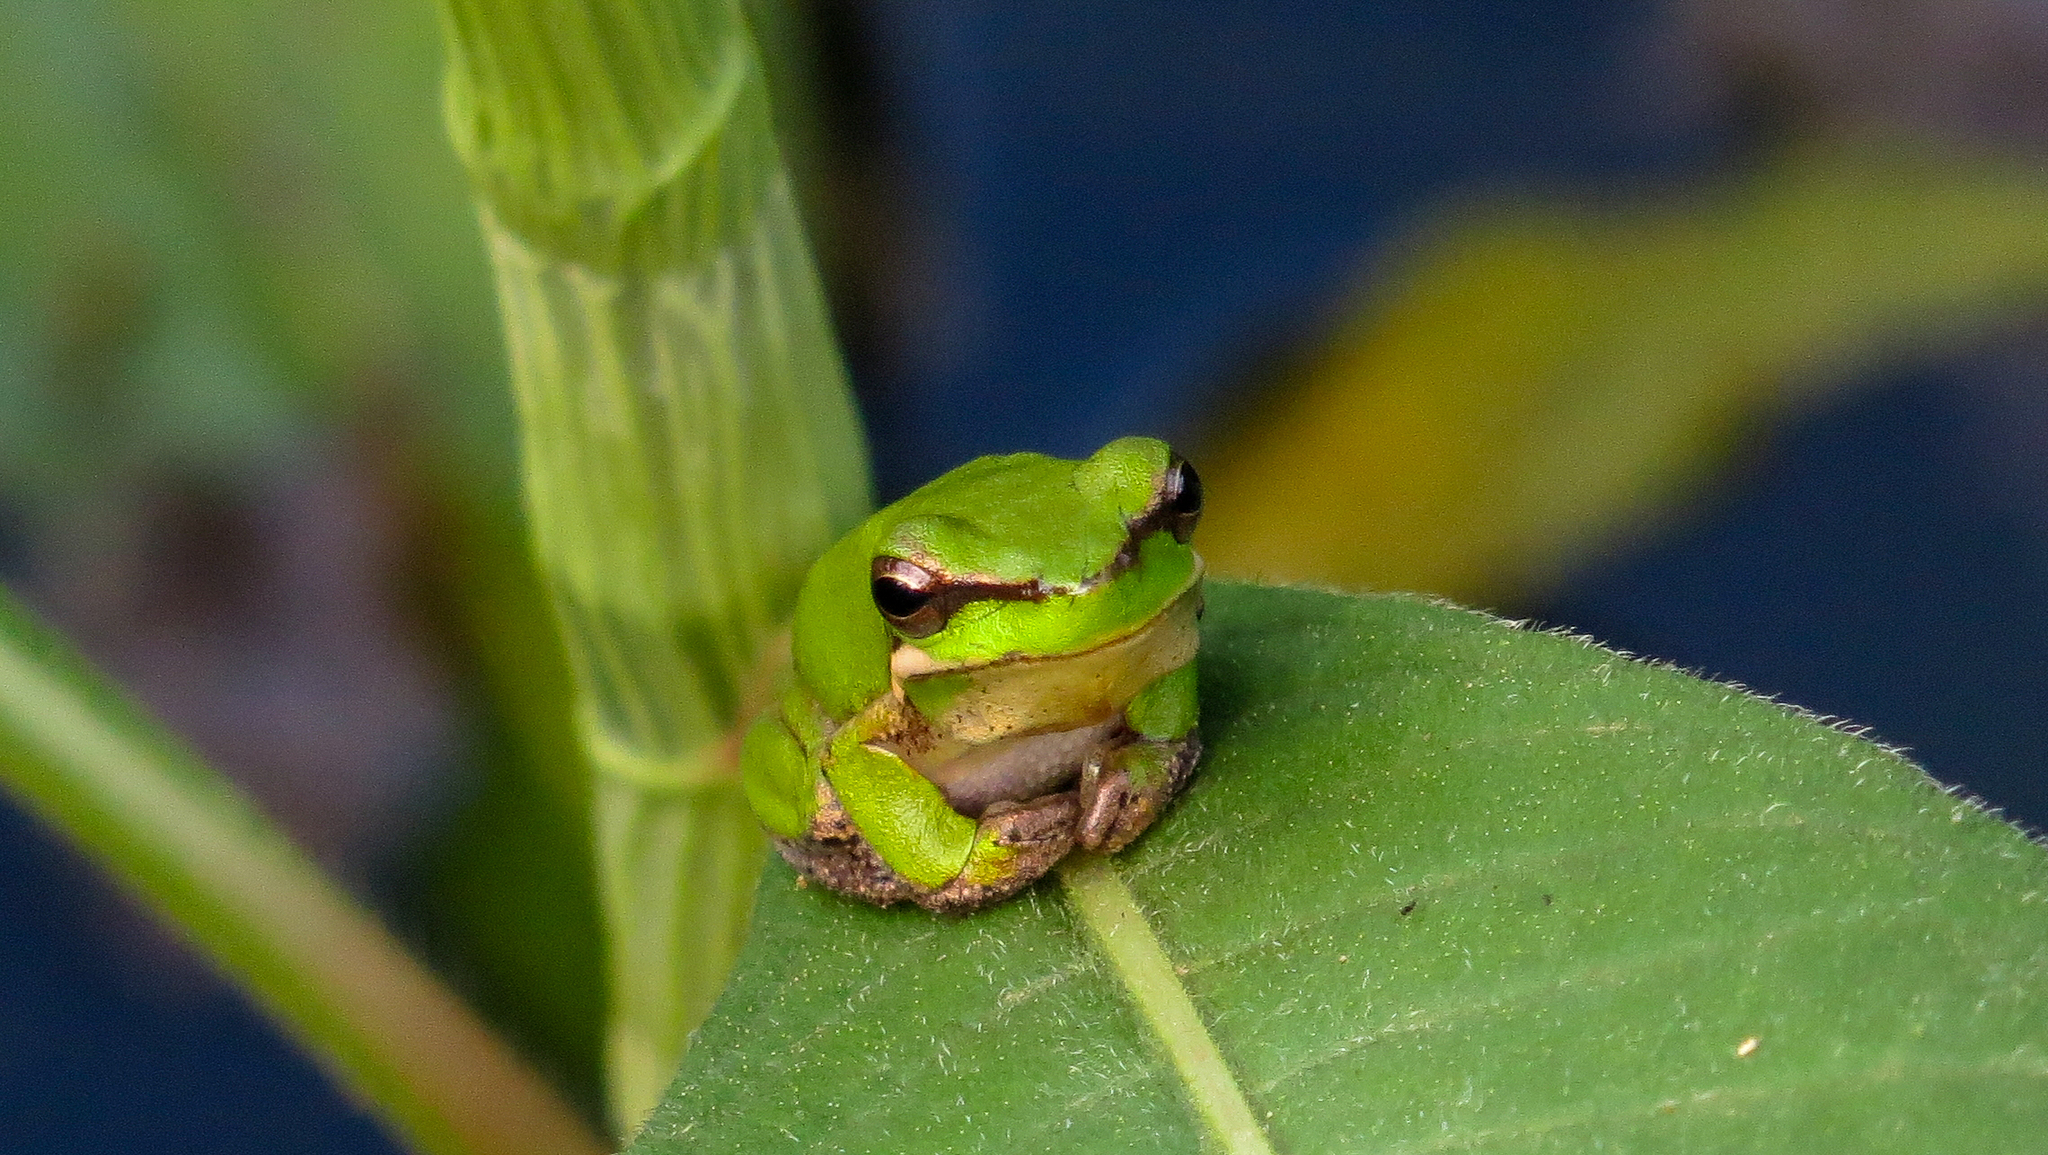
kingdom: Animalia
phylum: Chordata
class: Amphibia
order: Anura
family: Pelodryadidae
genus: Litoria
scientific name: Litoria fallax
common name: Eastern dwarf treefrog
